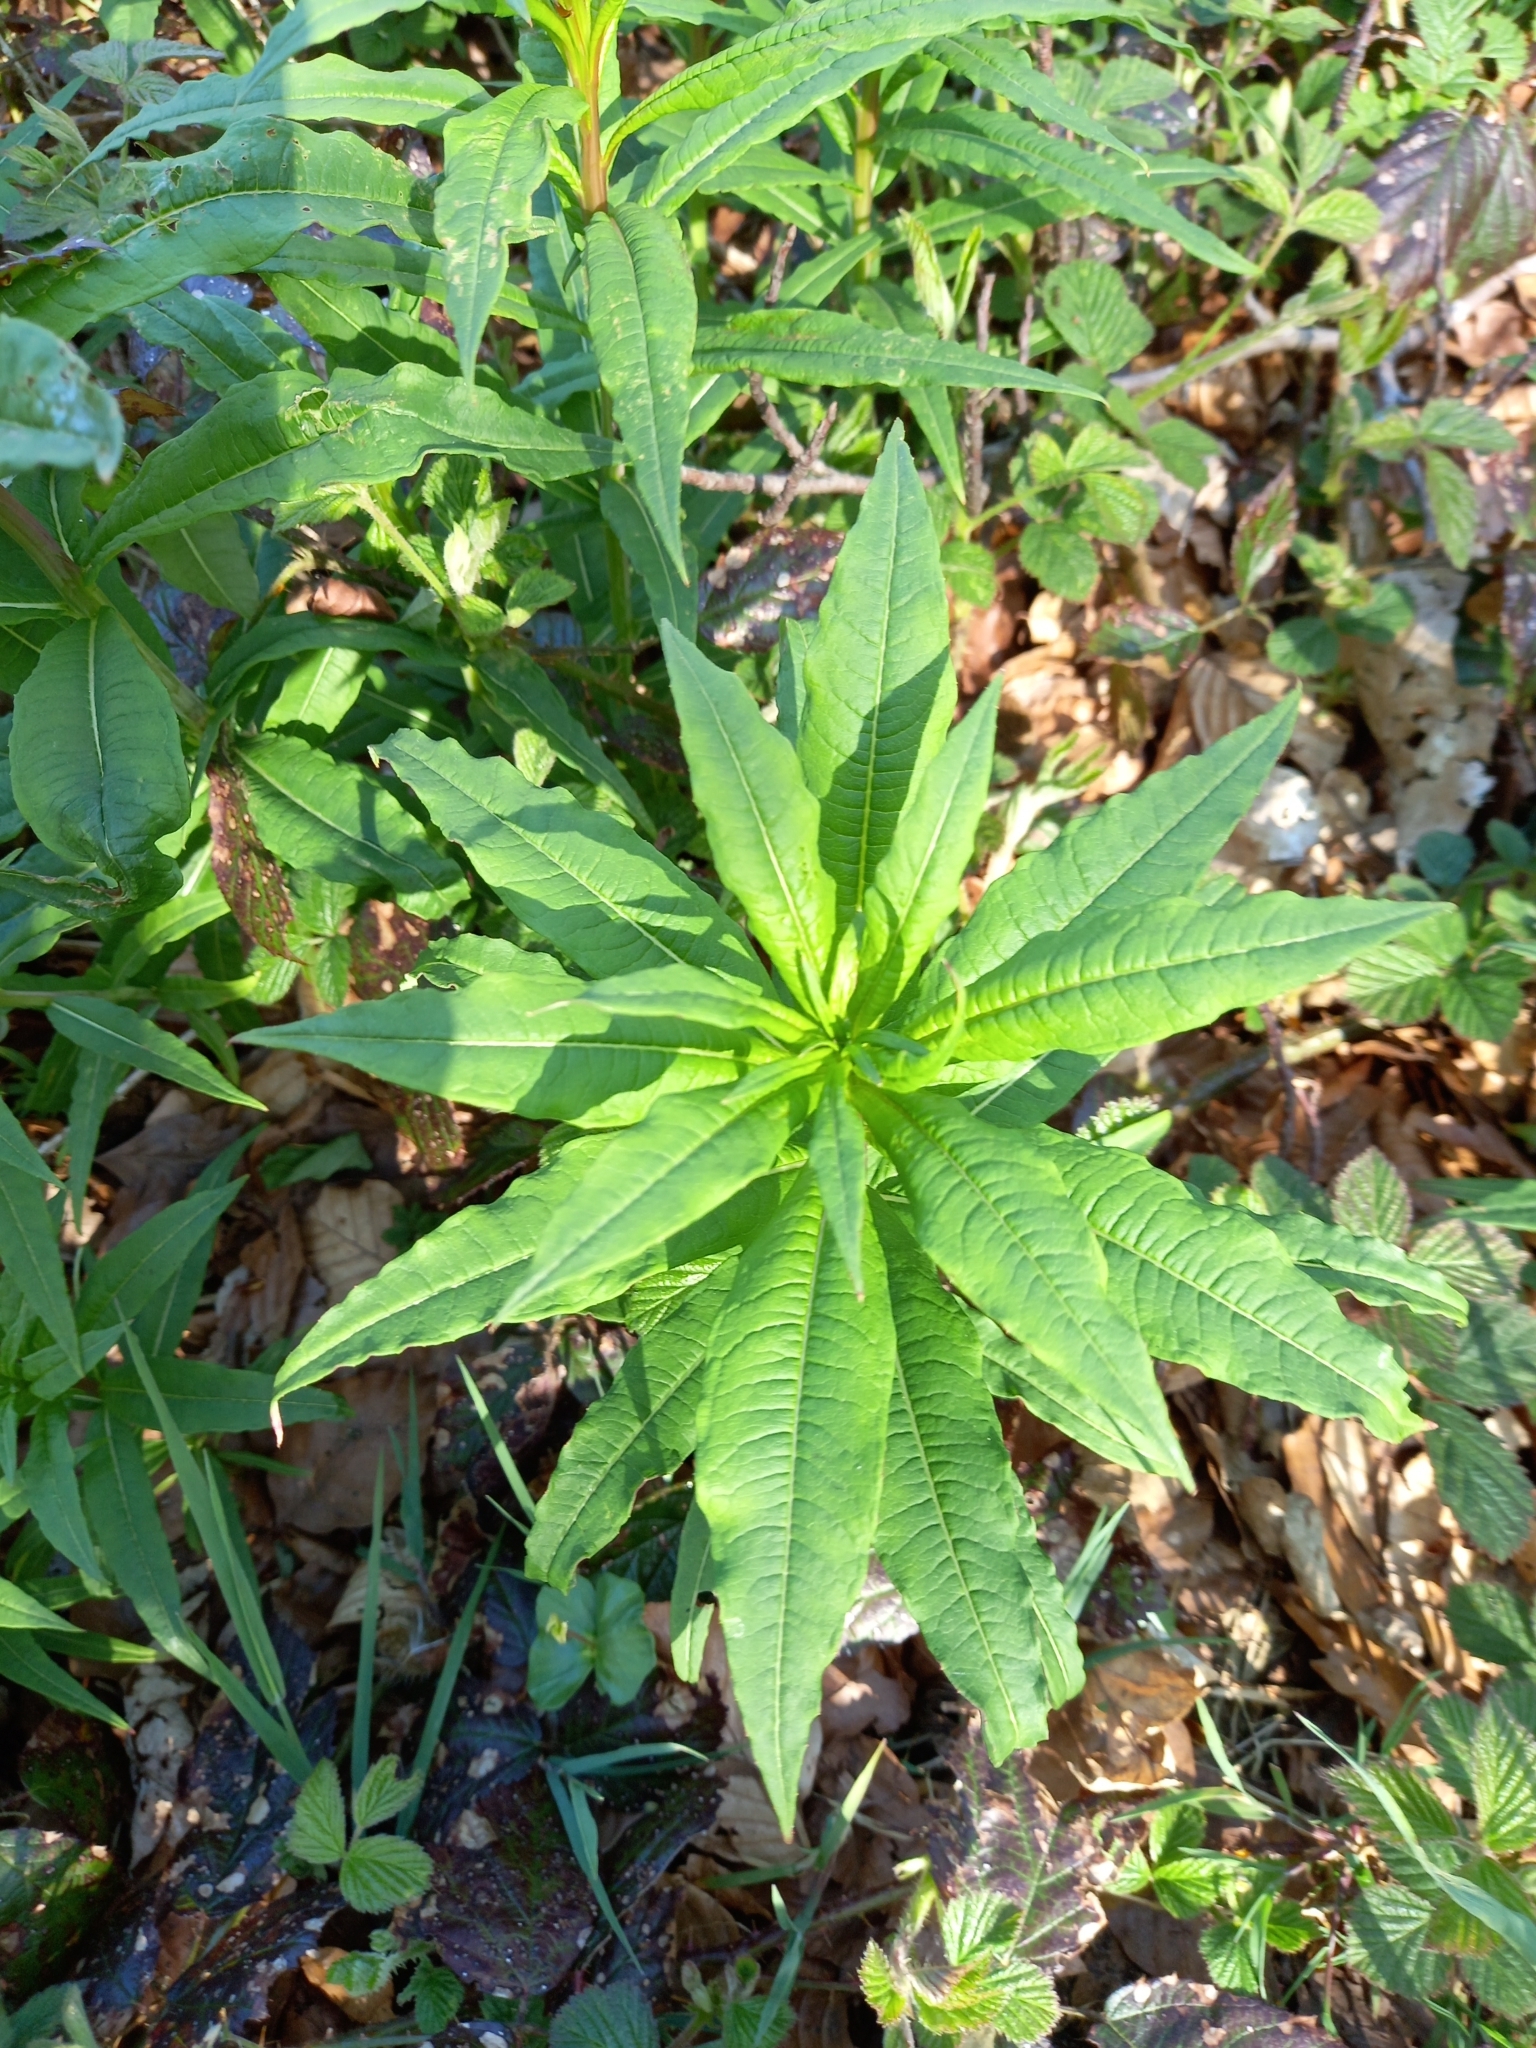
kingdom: Plantae
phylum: Tracheophyta
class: Magnoliopsida
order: Myrtales
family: Onagraceae
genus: Chamaenerion
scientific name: Chamaenerion angustifolium
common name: Fireweed
